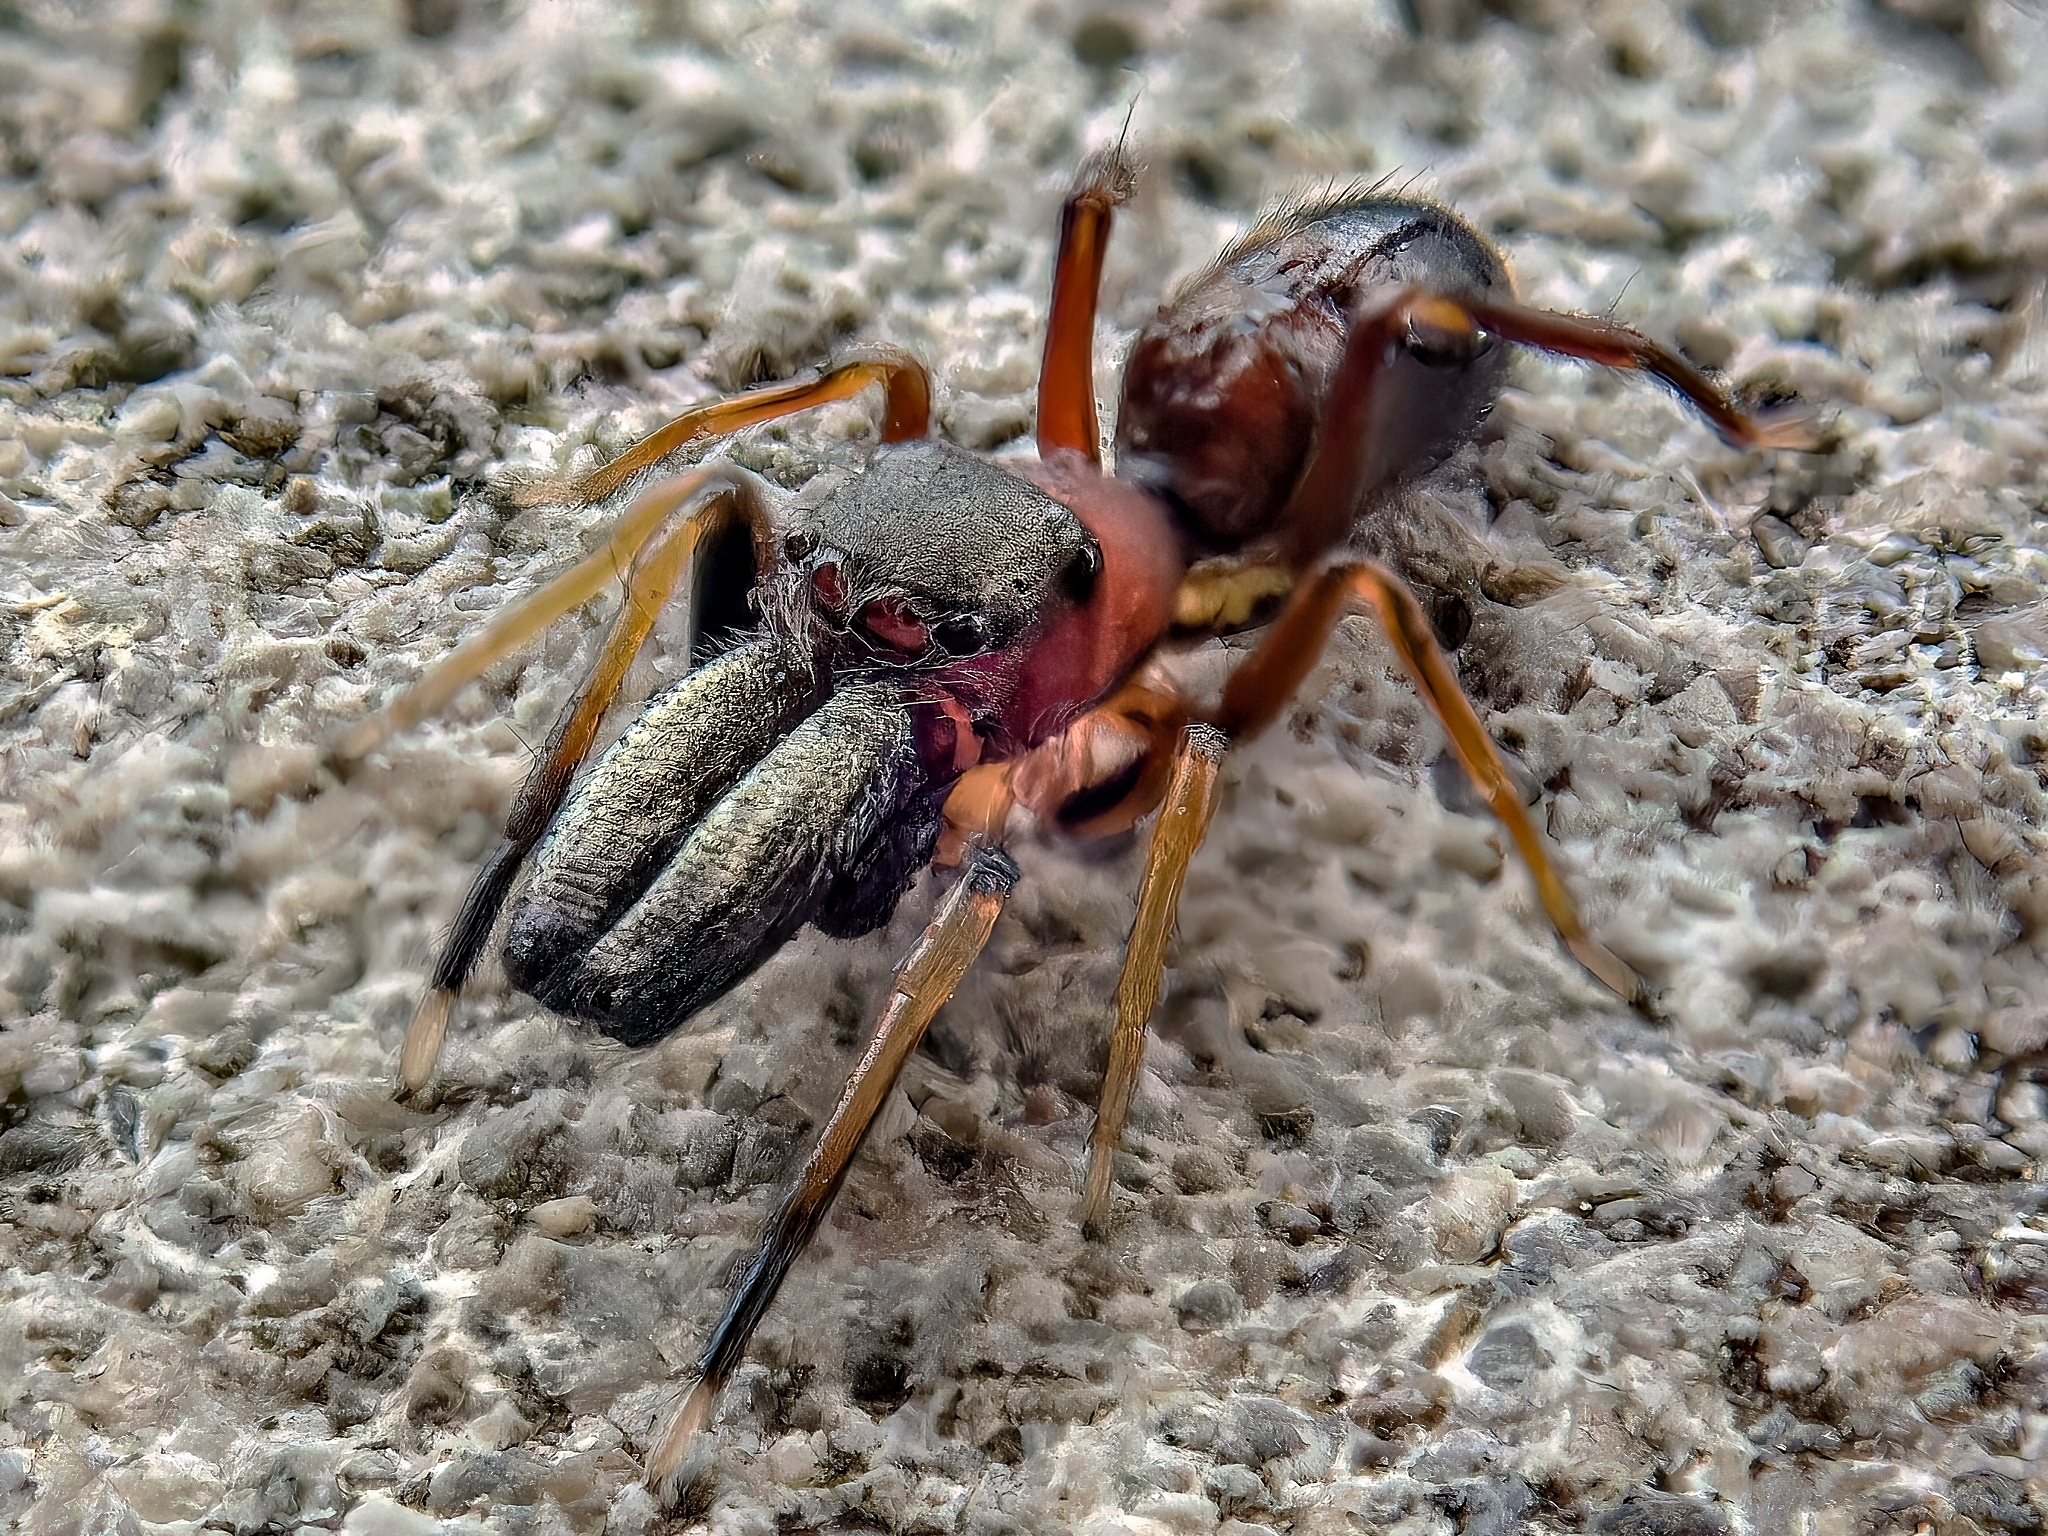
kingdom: Animalia
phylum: Arthropoda
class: Arachnida
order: Araneae
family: Salticidae
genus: Myrmarachne
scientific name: Myrmarachne formicaria
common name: Ant mimic jumping spider
